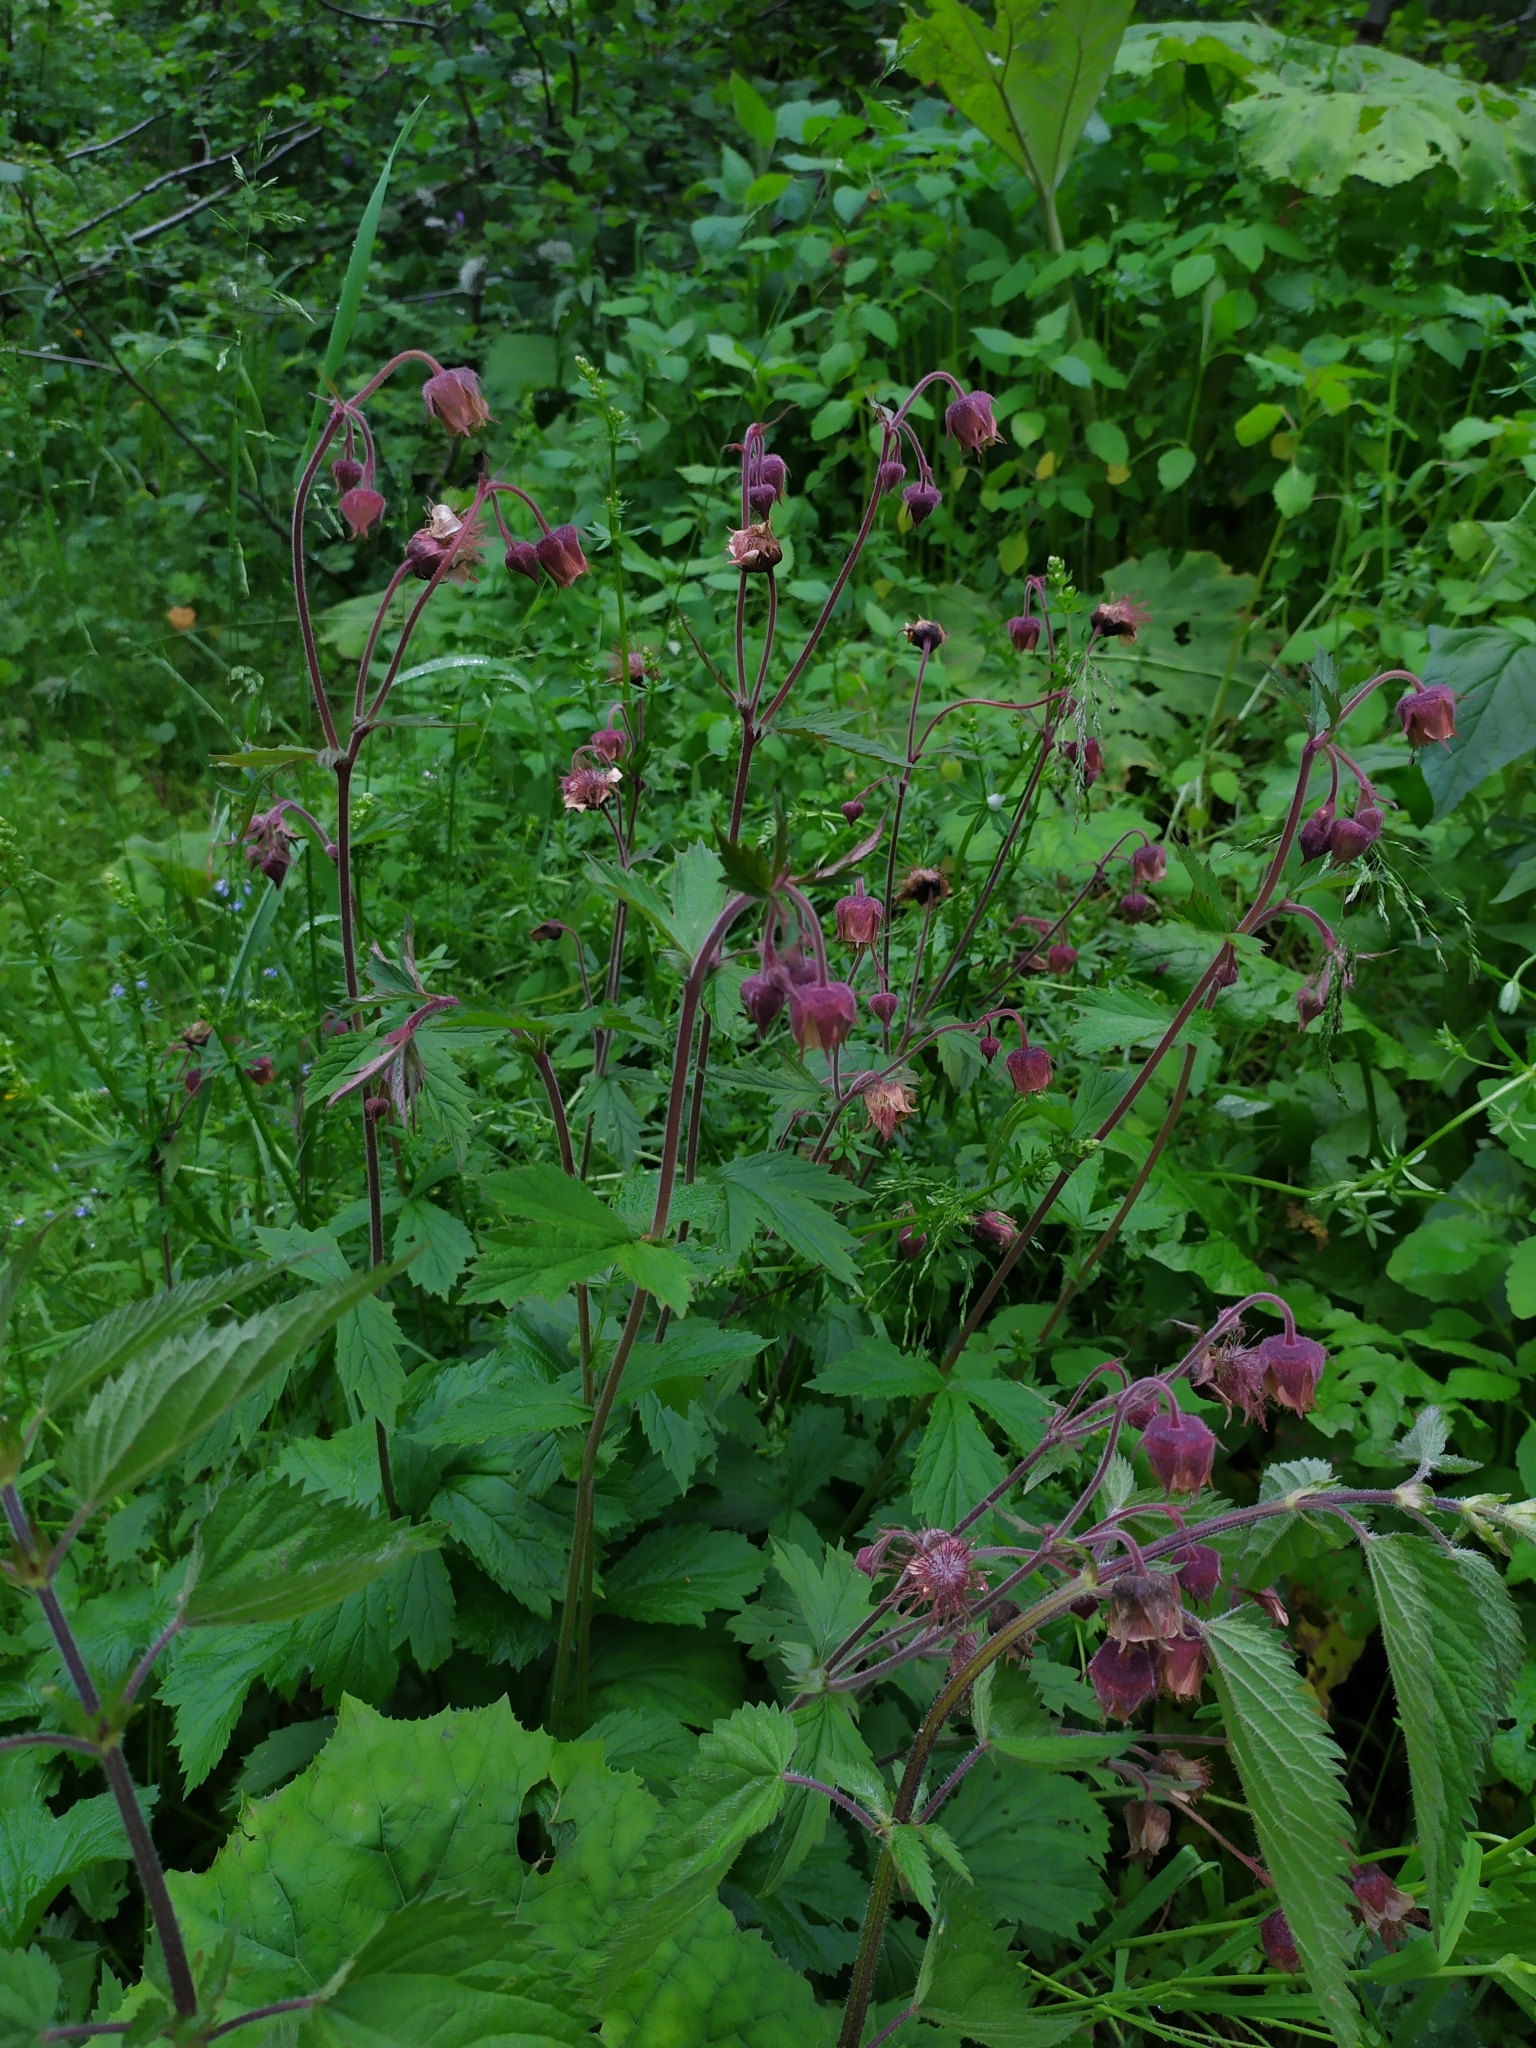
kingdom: Plantae
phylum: Tracheophyta
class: Magnoliopsida
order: Rosales
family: Rosaceae
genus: Geum
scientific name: Geum rivale
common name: Water avens
